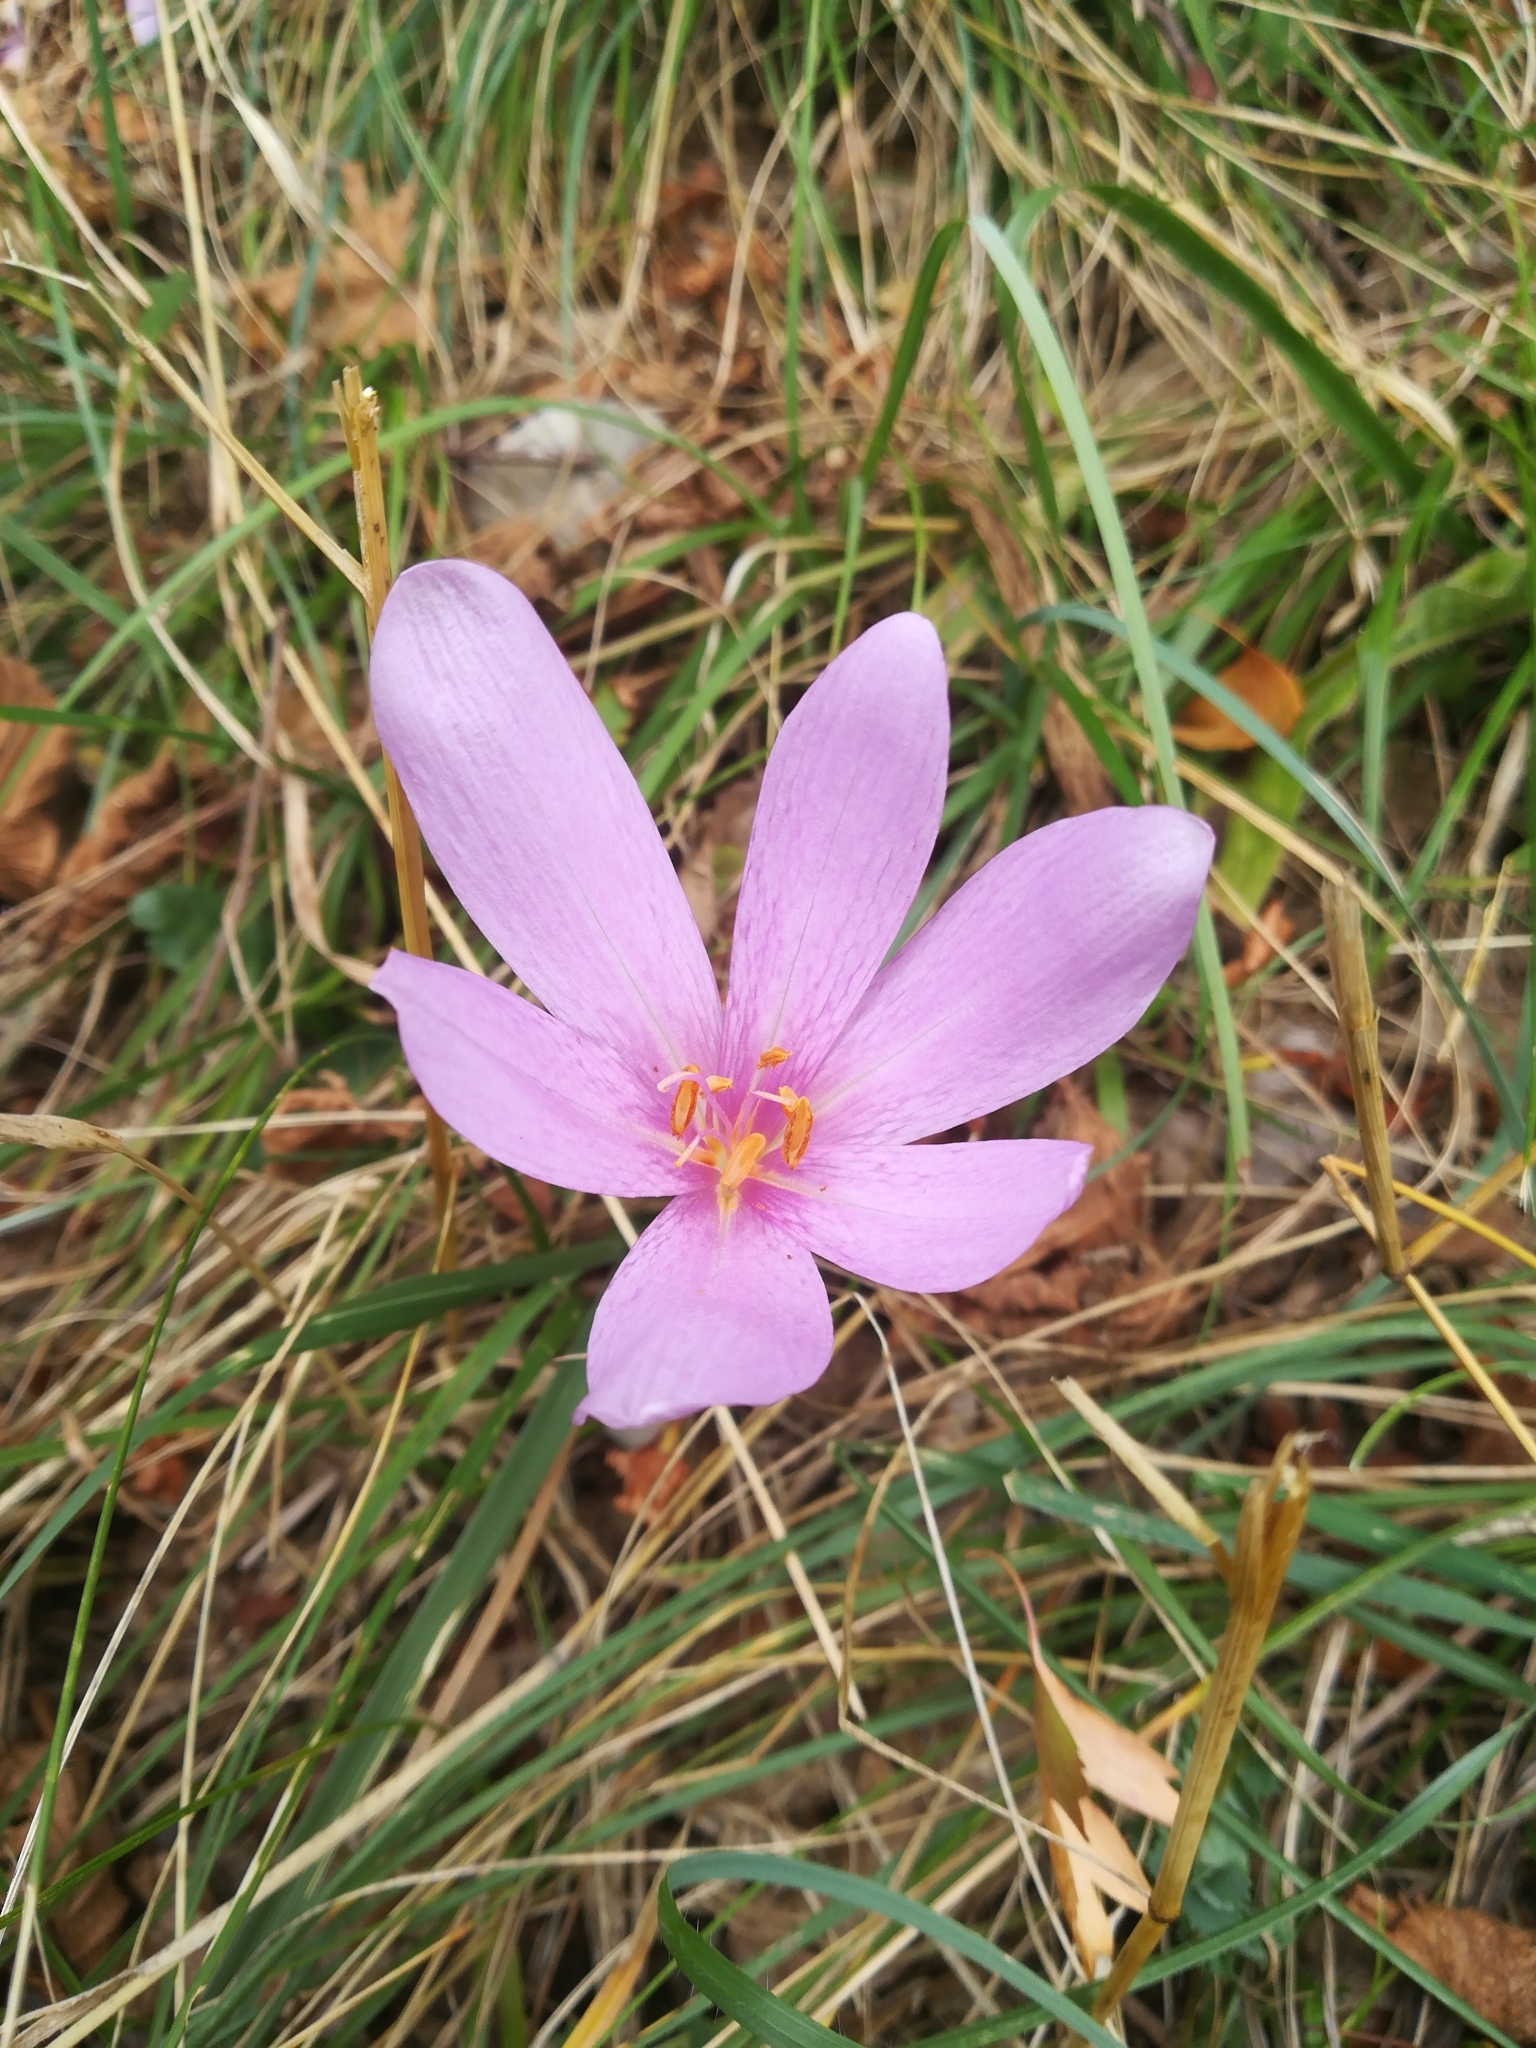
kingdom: Plantae
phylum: Tracheophyta
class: Liliopsida
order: Liliales
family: Colchicaceae
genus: Colchicum
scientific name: Colchicum autumnale
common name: Autumn crocus
